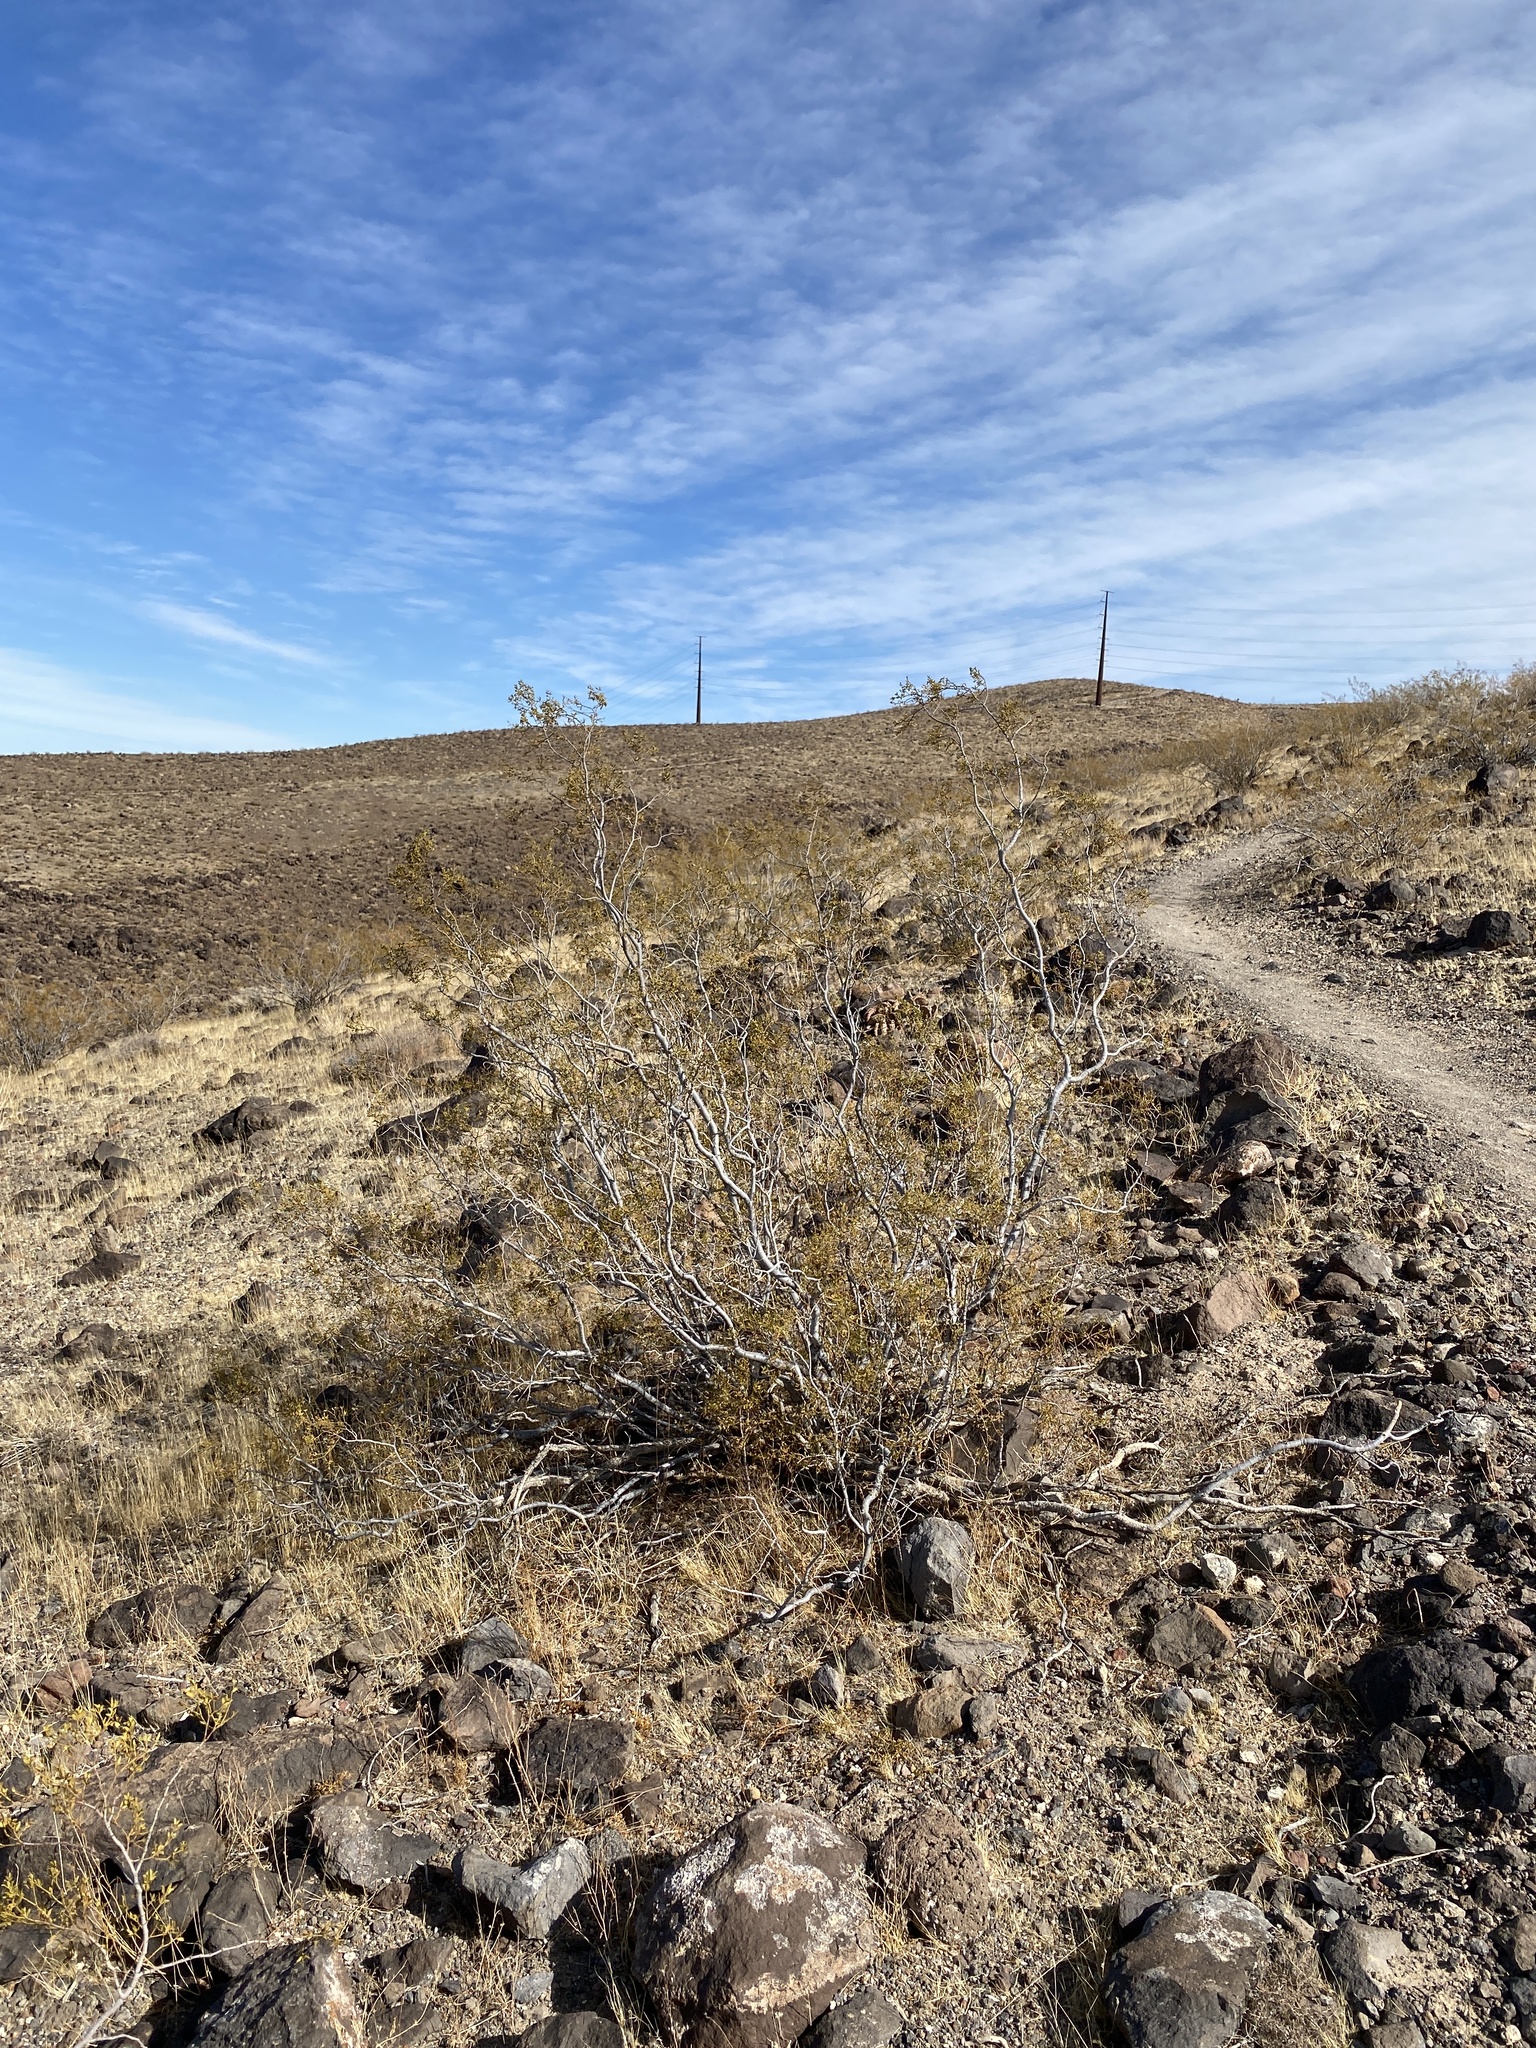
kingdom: Plantae
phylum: Tracheophyta
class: Magnoliopsida
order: Zygophyllales
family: Zygophyllaceae
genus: Larrea
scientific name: Larrea tridentata
